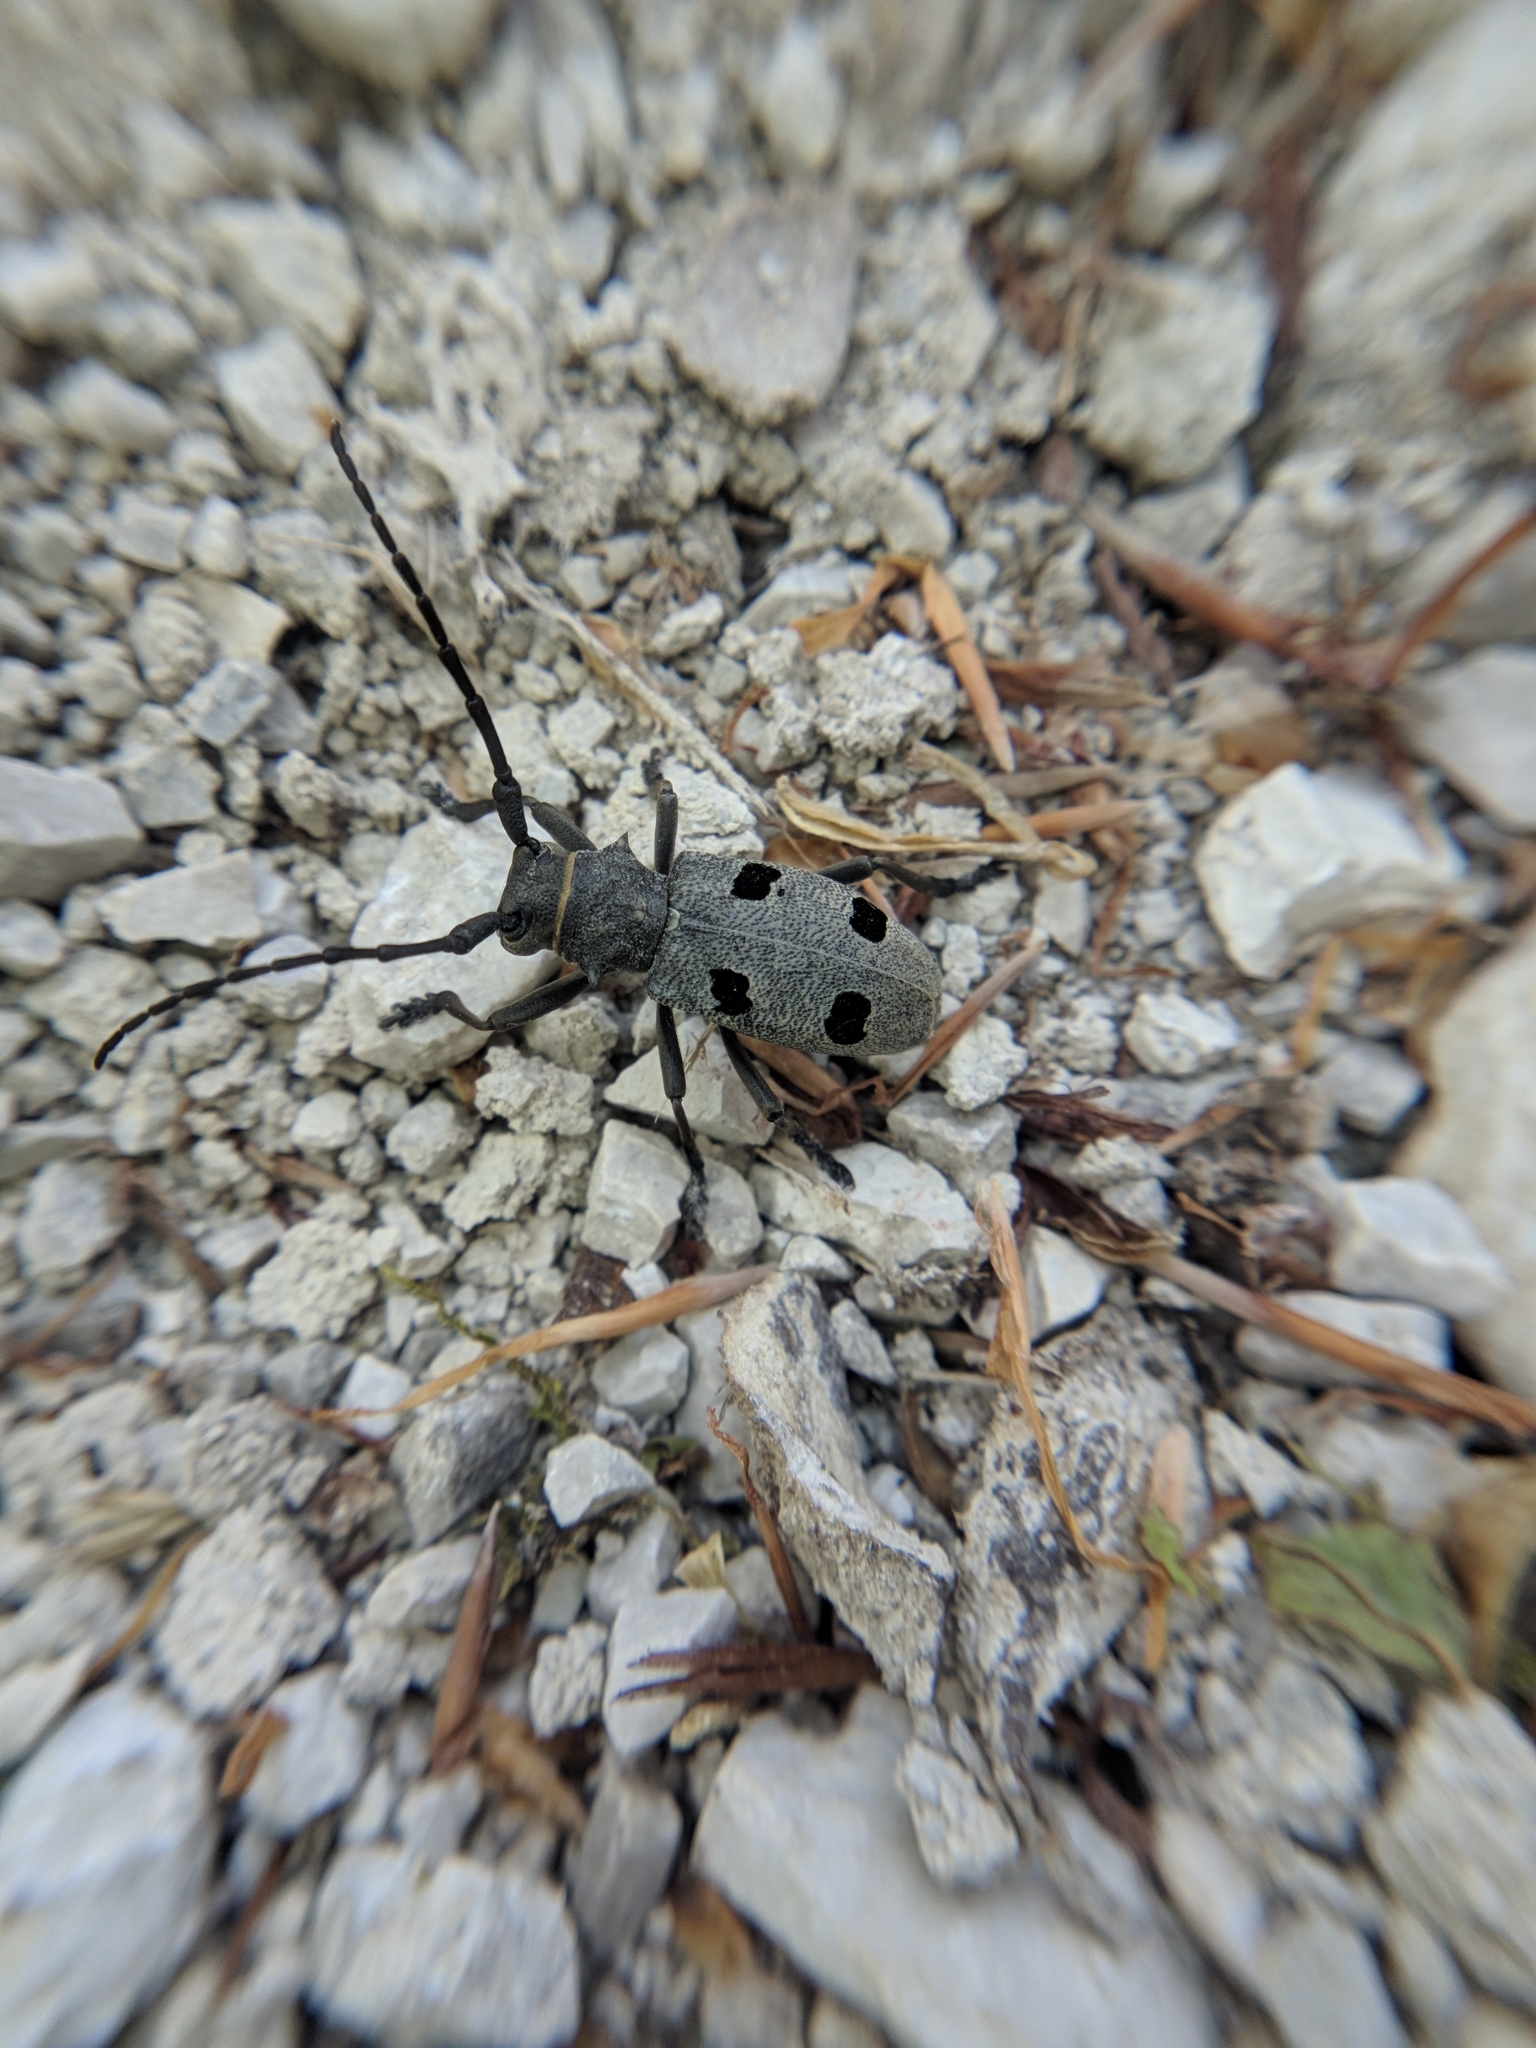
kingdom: Animalia
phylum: Arthropoda
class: Insecta
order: Coleoptera
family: Cerambycidae
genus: Morimus
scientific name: Morimus funereus
